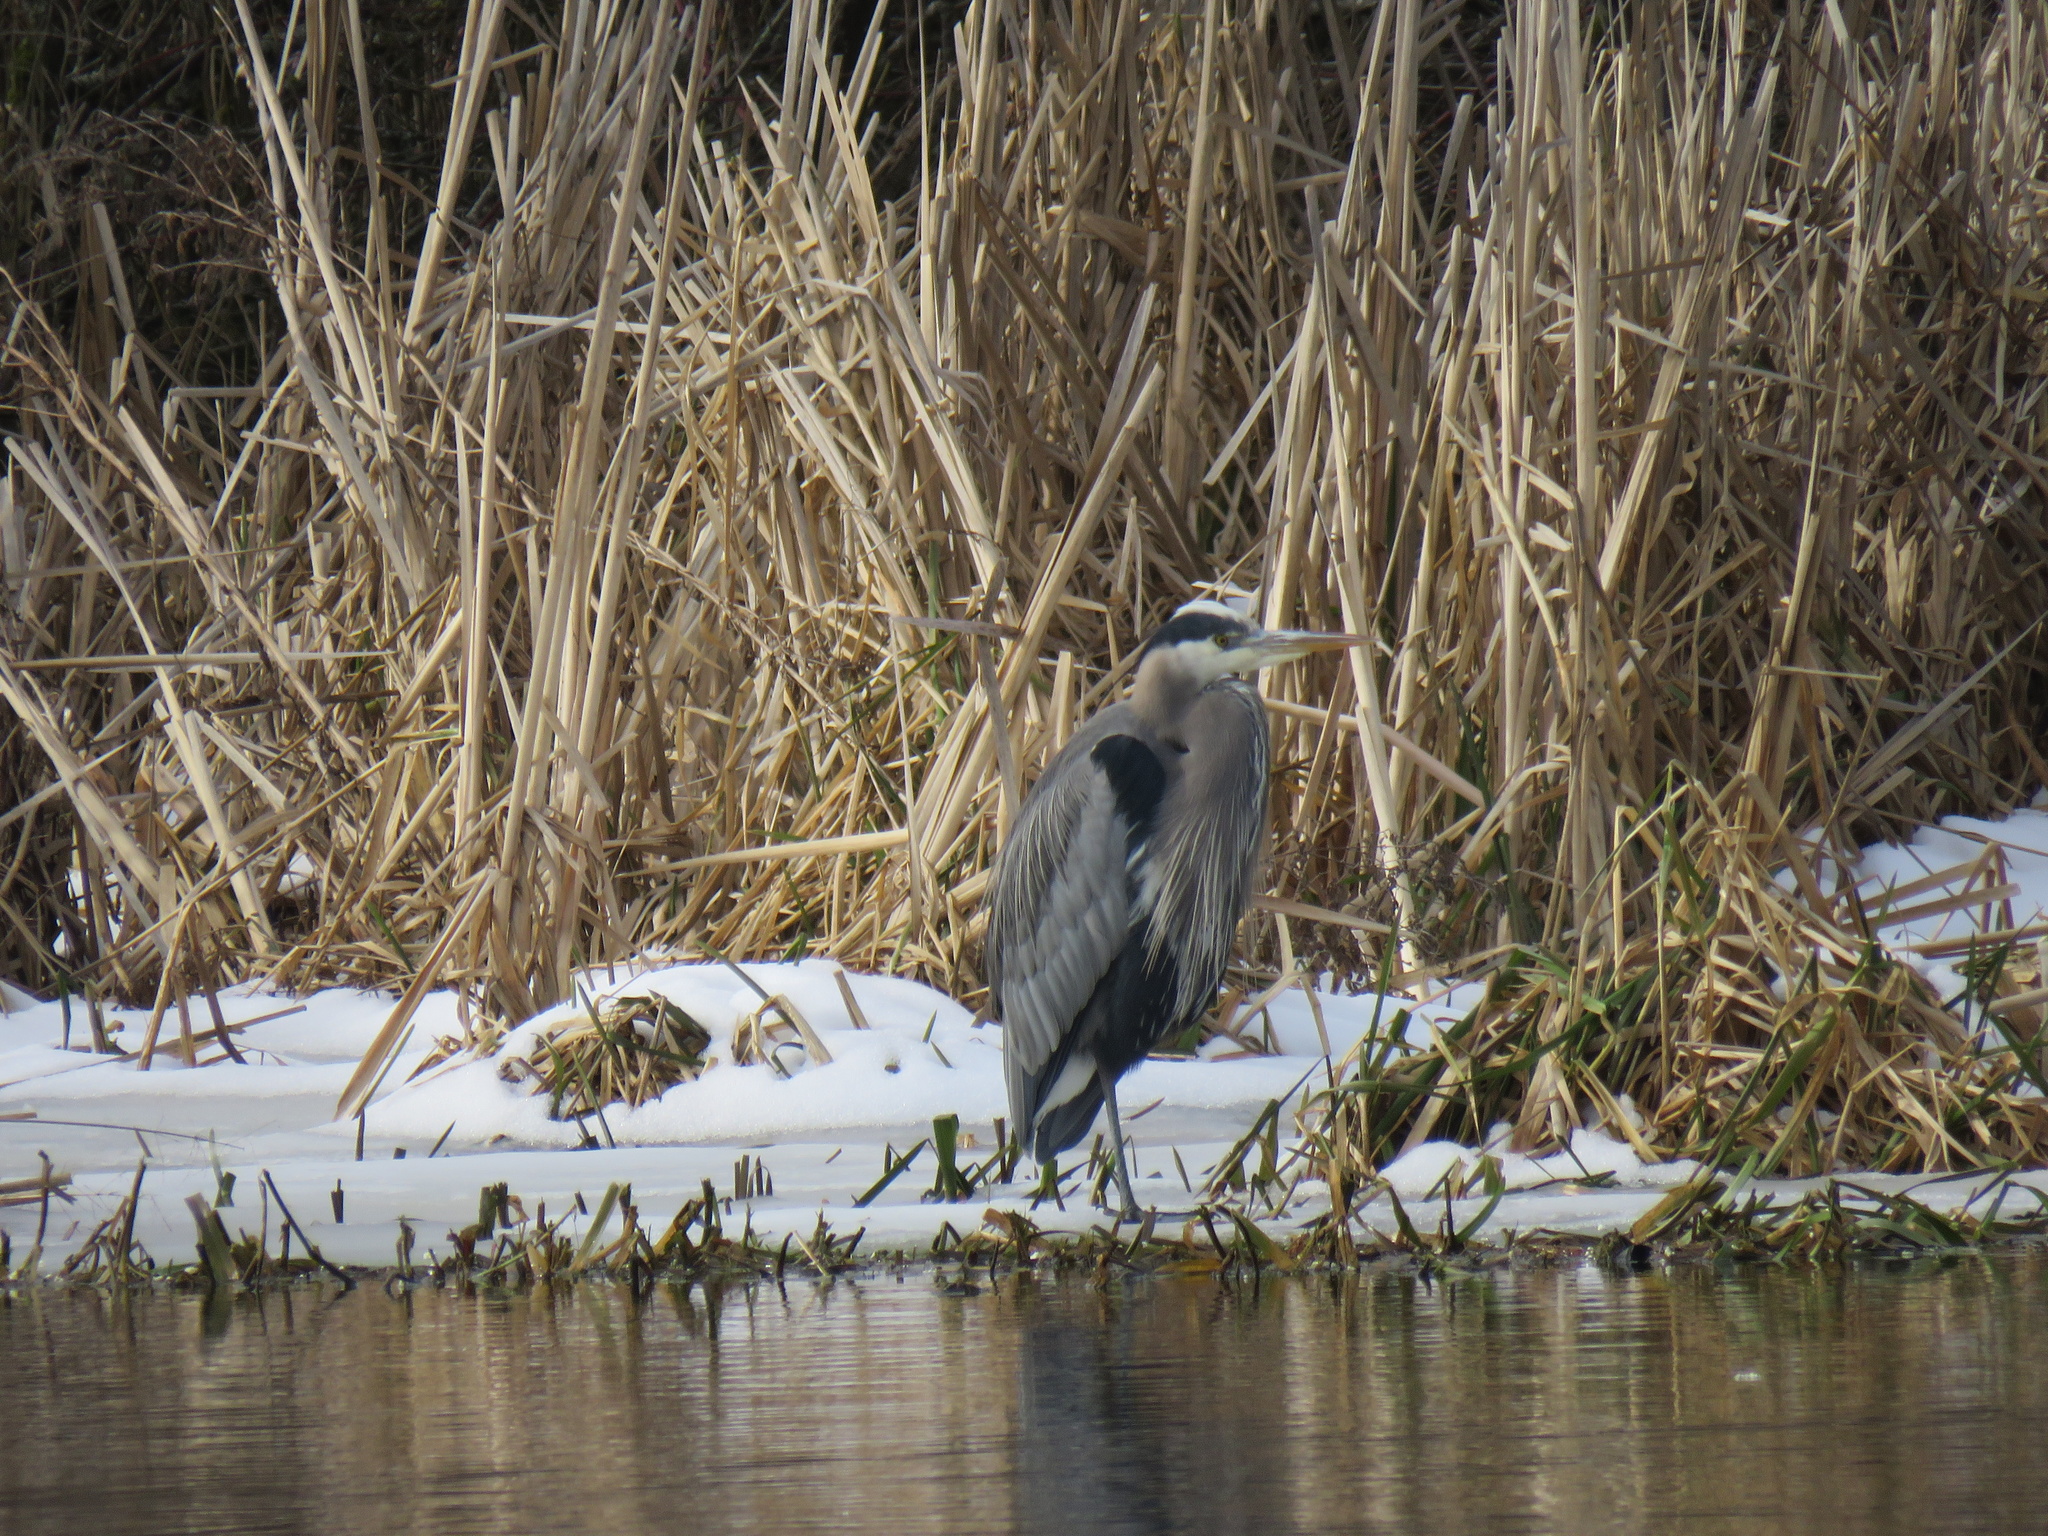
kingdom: Animalia
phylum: Chordata
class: Aves
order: Pelecaniformes
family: Ardeidae
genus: Ardea
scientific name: Ardea herodias
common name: Great blue heron
